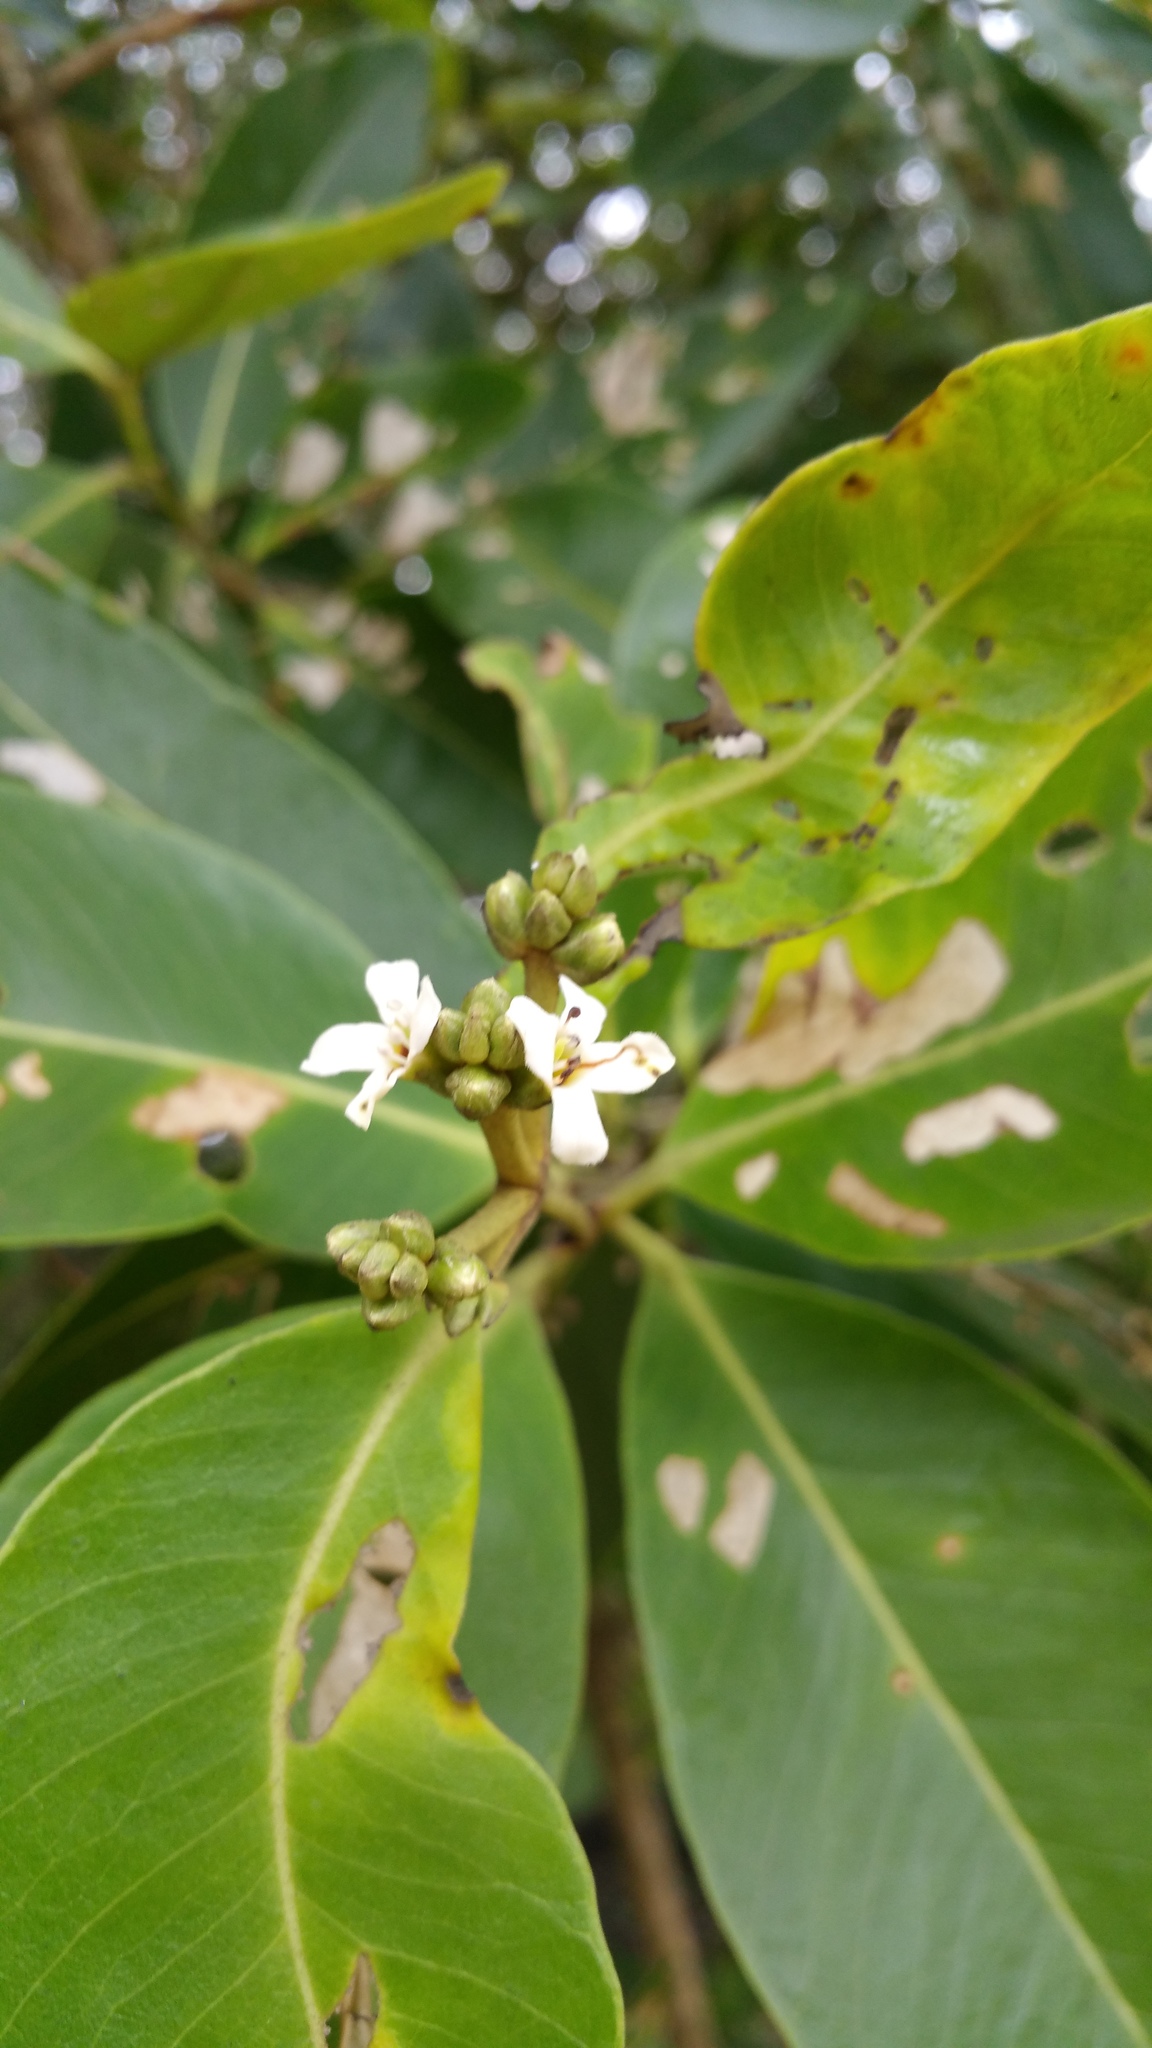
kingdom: Plantae
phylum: Tracheophyta
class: Magnoliopsida
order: Lamiales
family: Acanthaceae
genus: Avicennia
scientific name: Avicennia germinans
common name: Black mangrove
